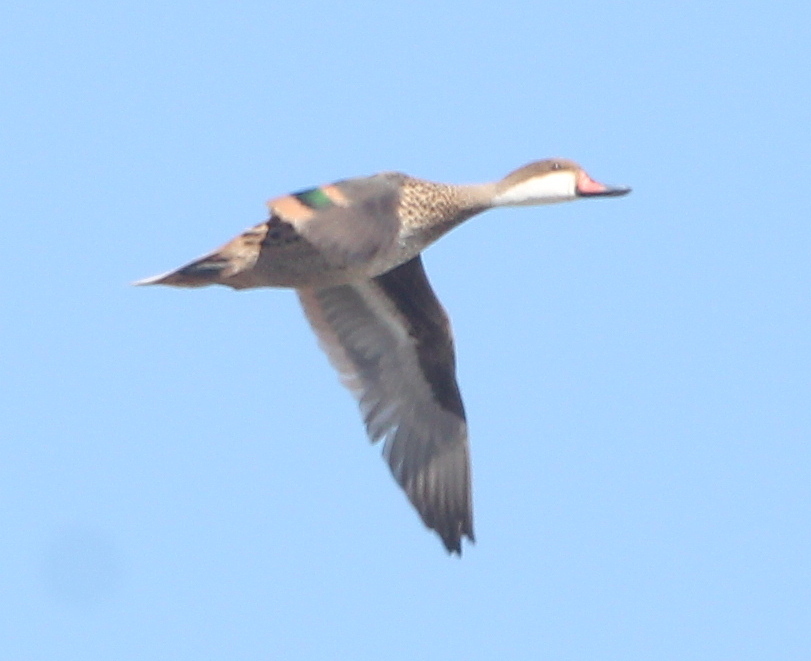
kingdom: Animalia
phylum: Chordata
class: Aves
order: Anseriformes
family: Anatidae
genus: Anas
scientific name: Anas bahamensis
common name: White-cheeked pintail
